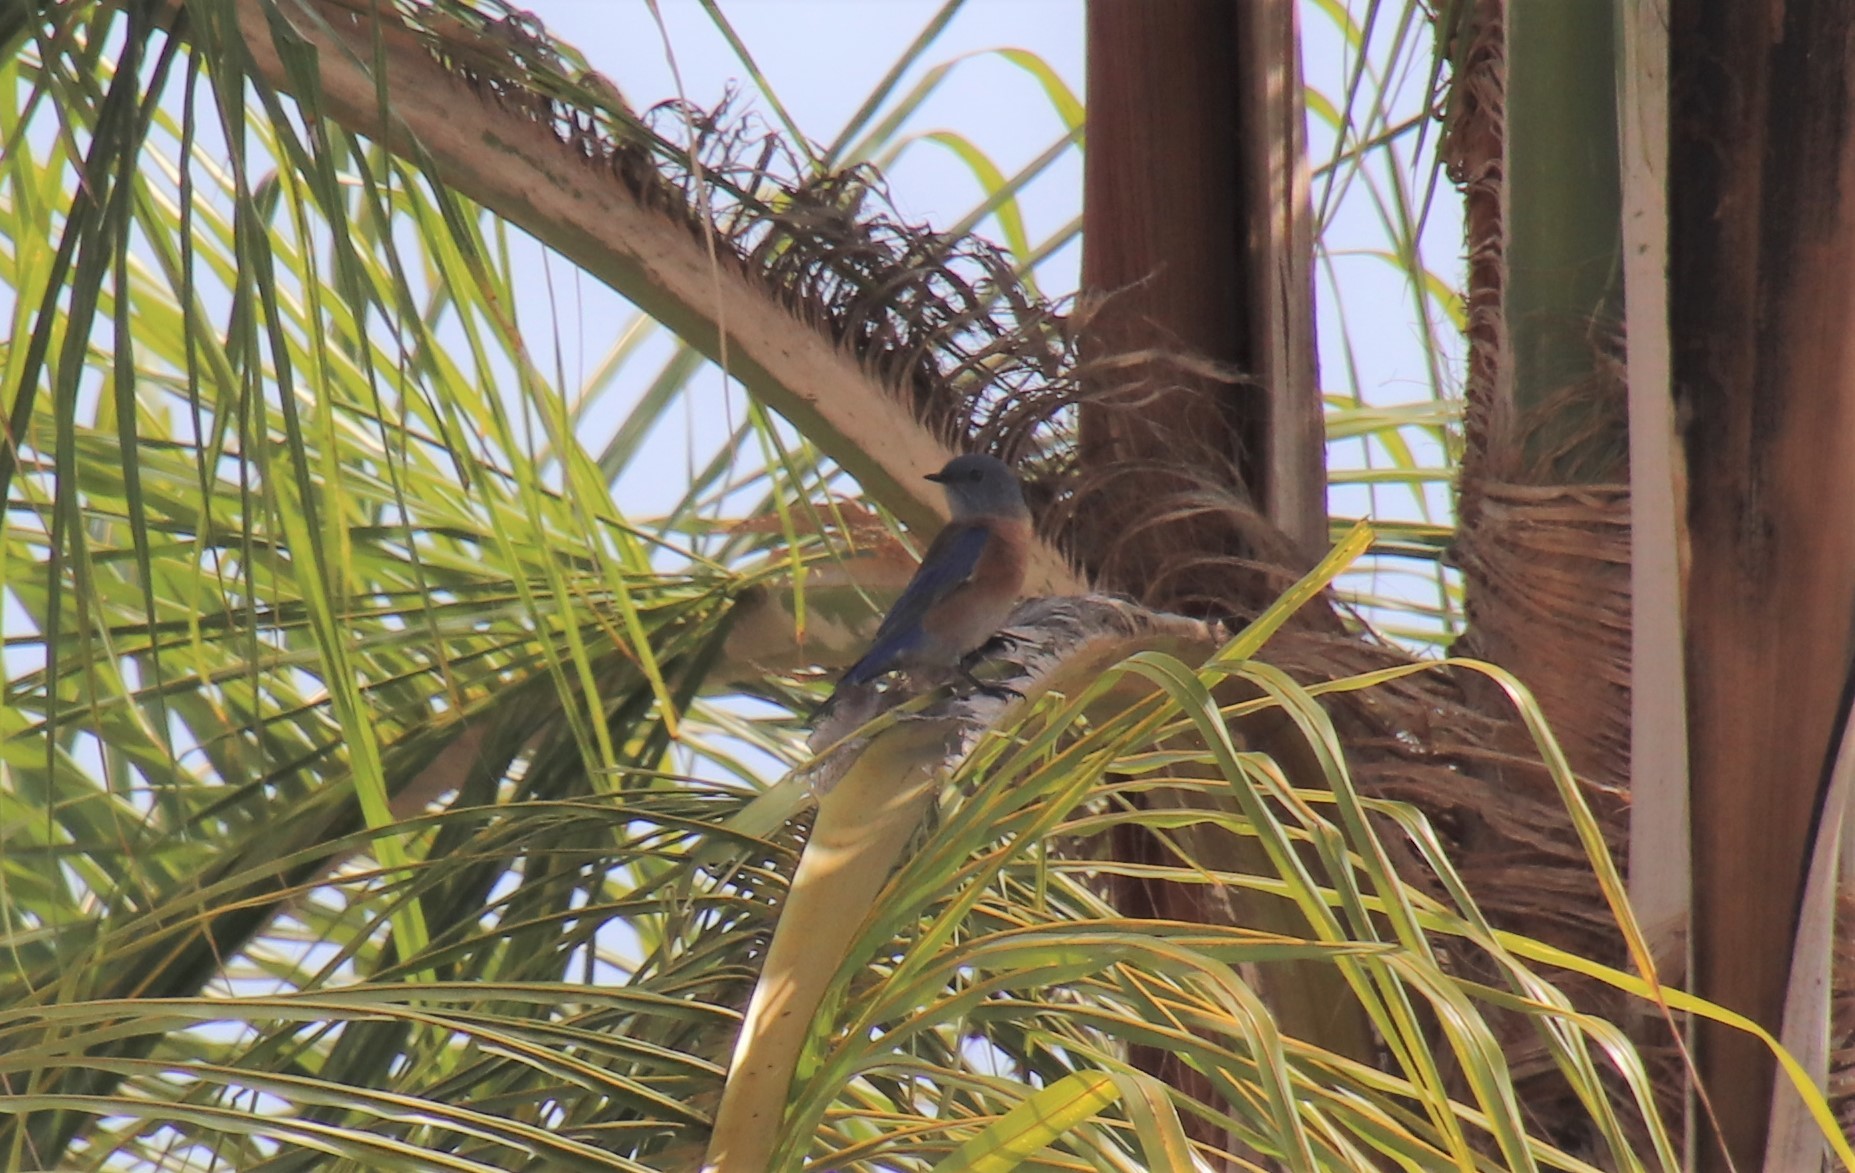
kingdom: Animalia
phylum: Chordata
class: Aves
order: Passeriformes
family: Turdidae
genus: Sialia
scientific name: Sialia mexicana
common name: Western bluebird
